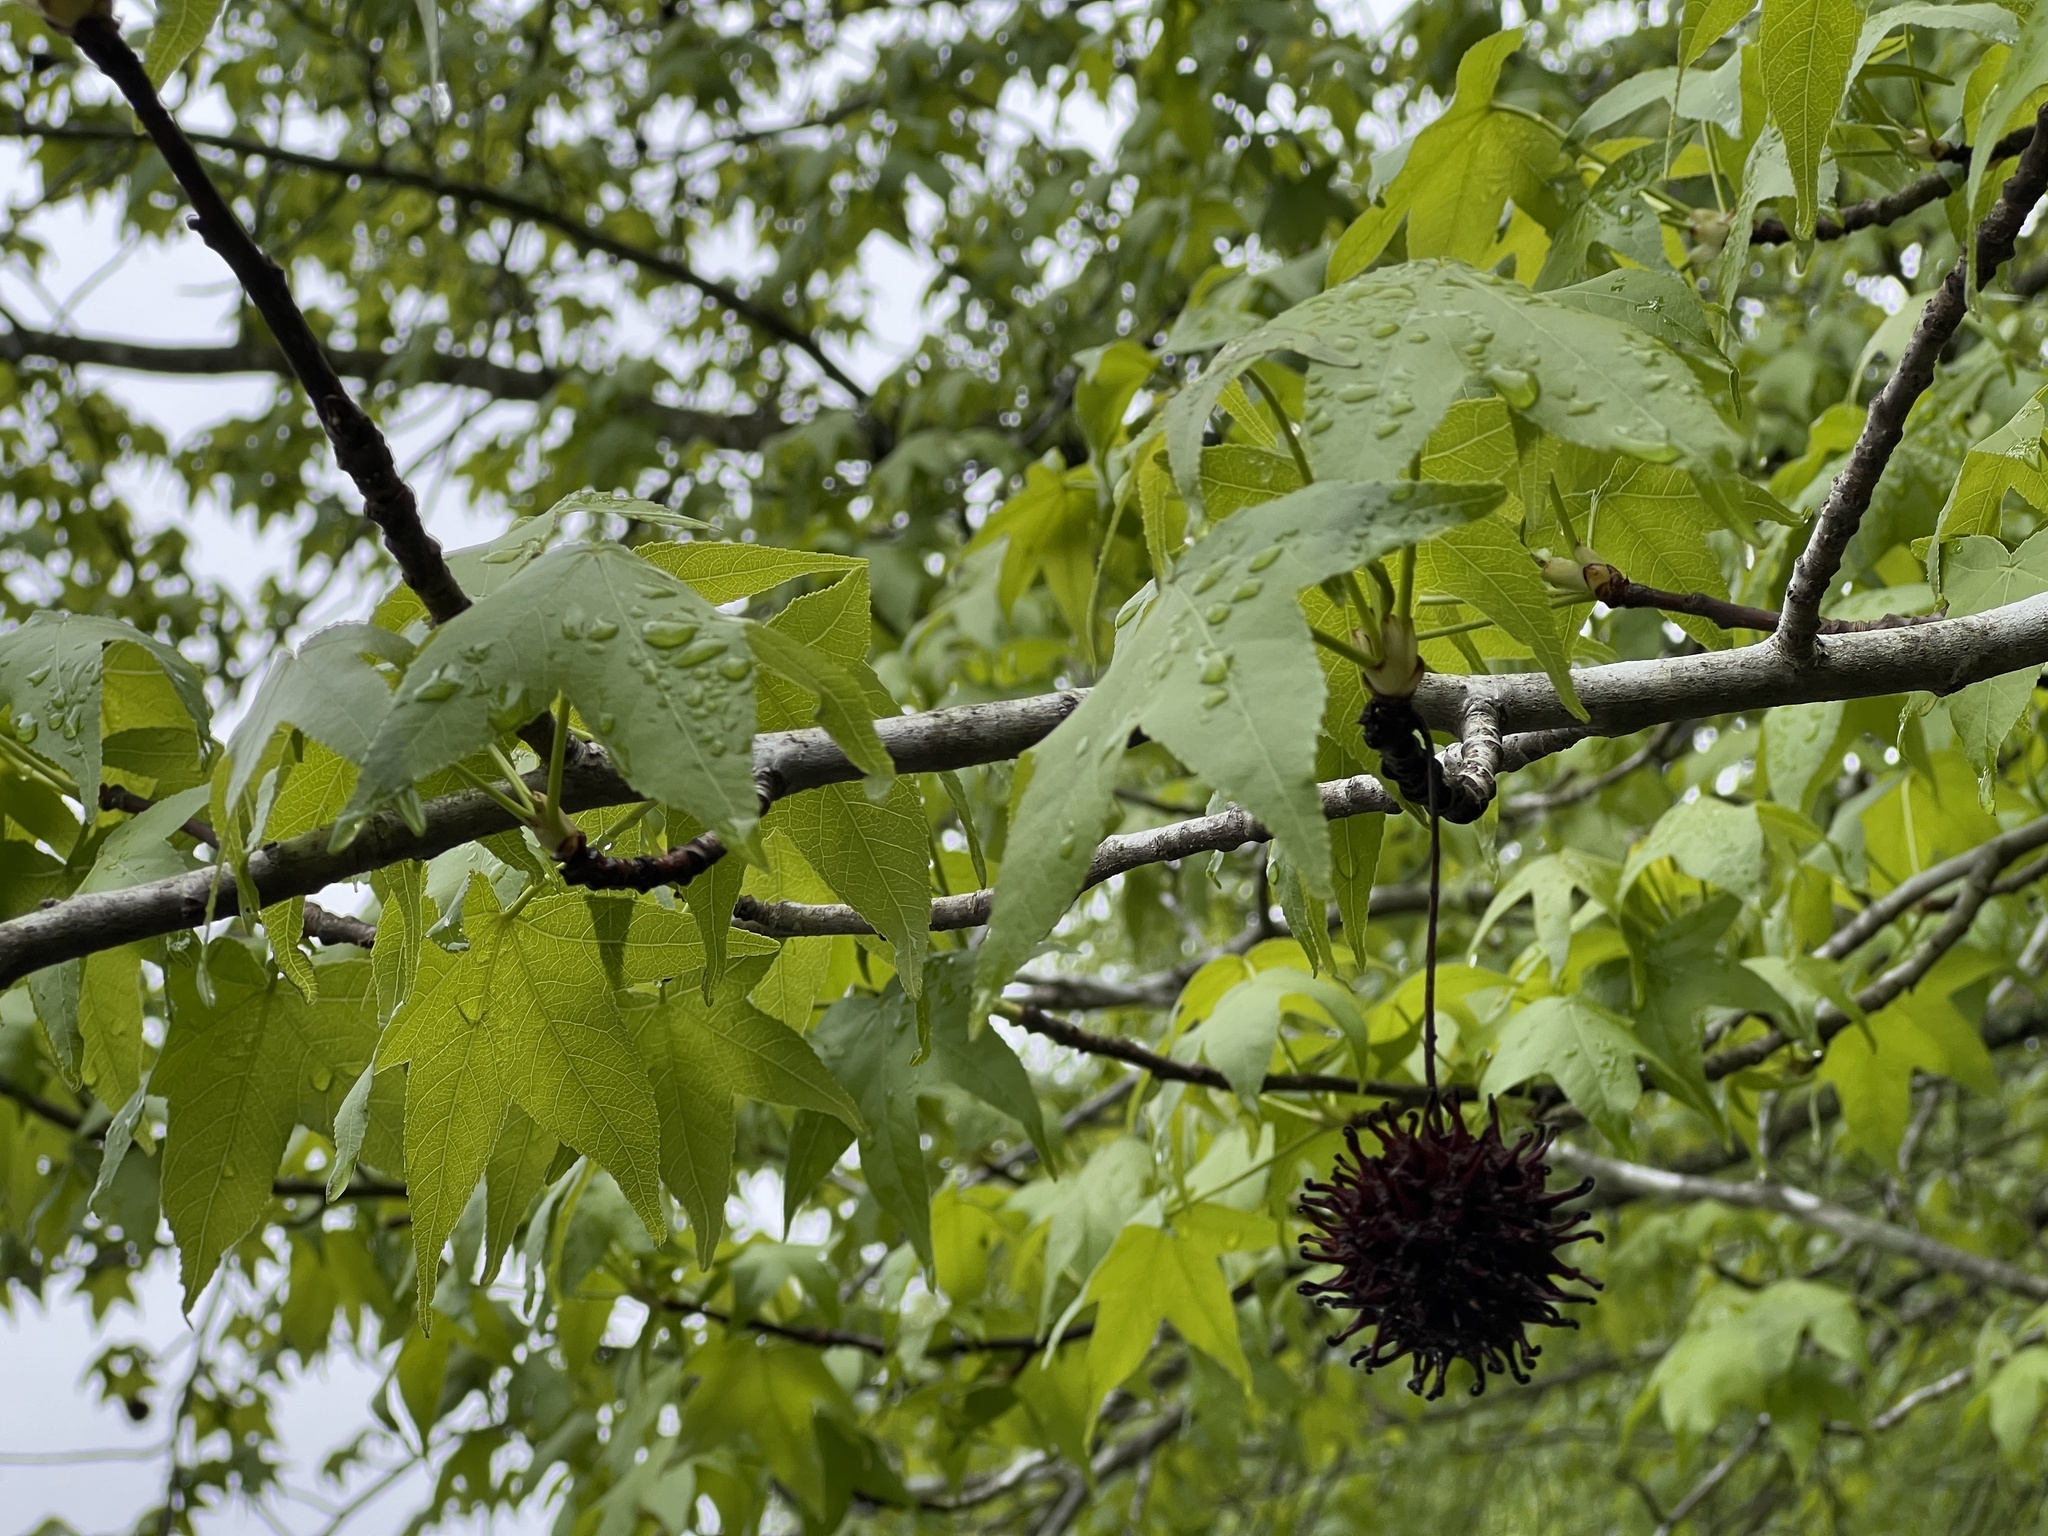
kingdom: Plantae
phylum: Tracheophyta
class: Magnoliopsida
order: Saxifragales
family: Altingiaceae
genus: Liquidambar
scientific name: Liquidambar styraciflua
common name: Sweet gum
